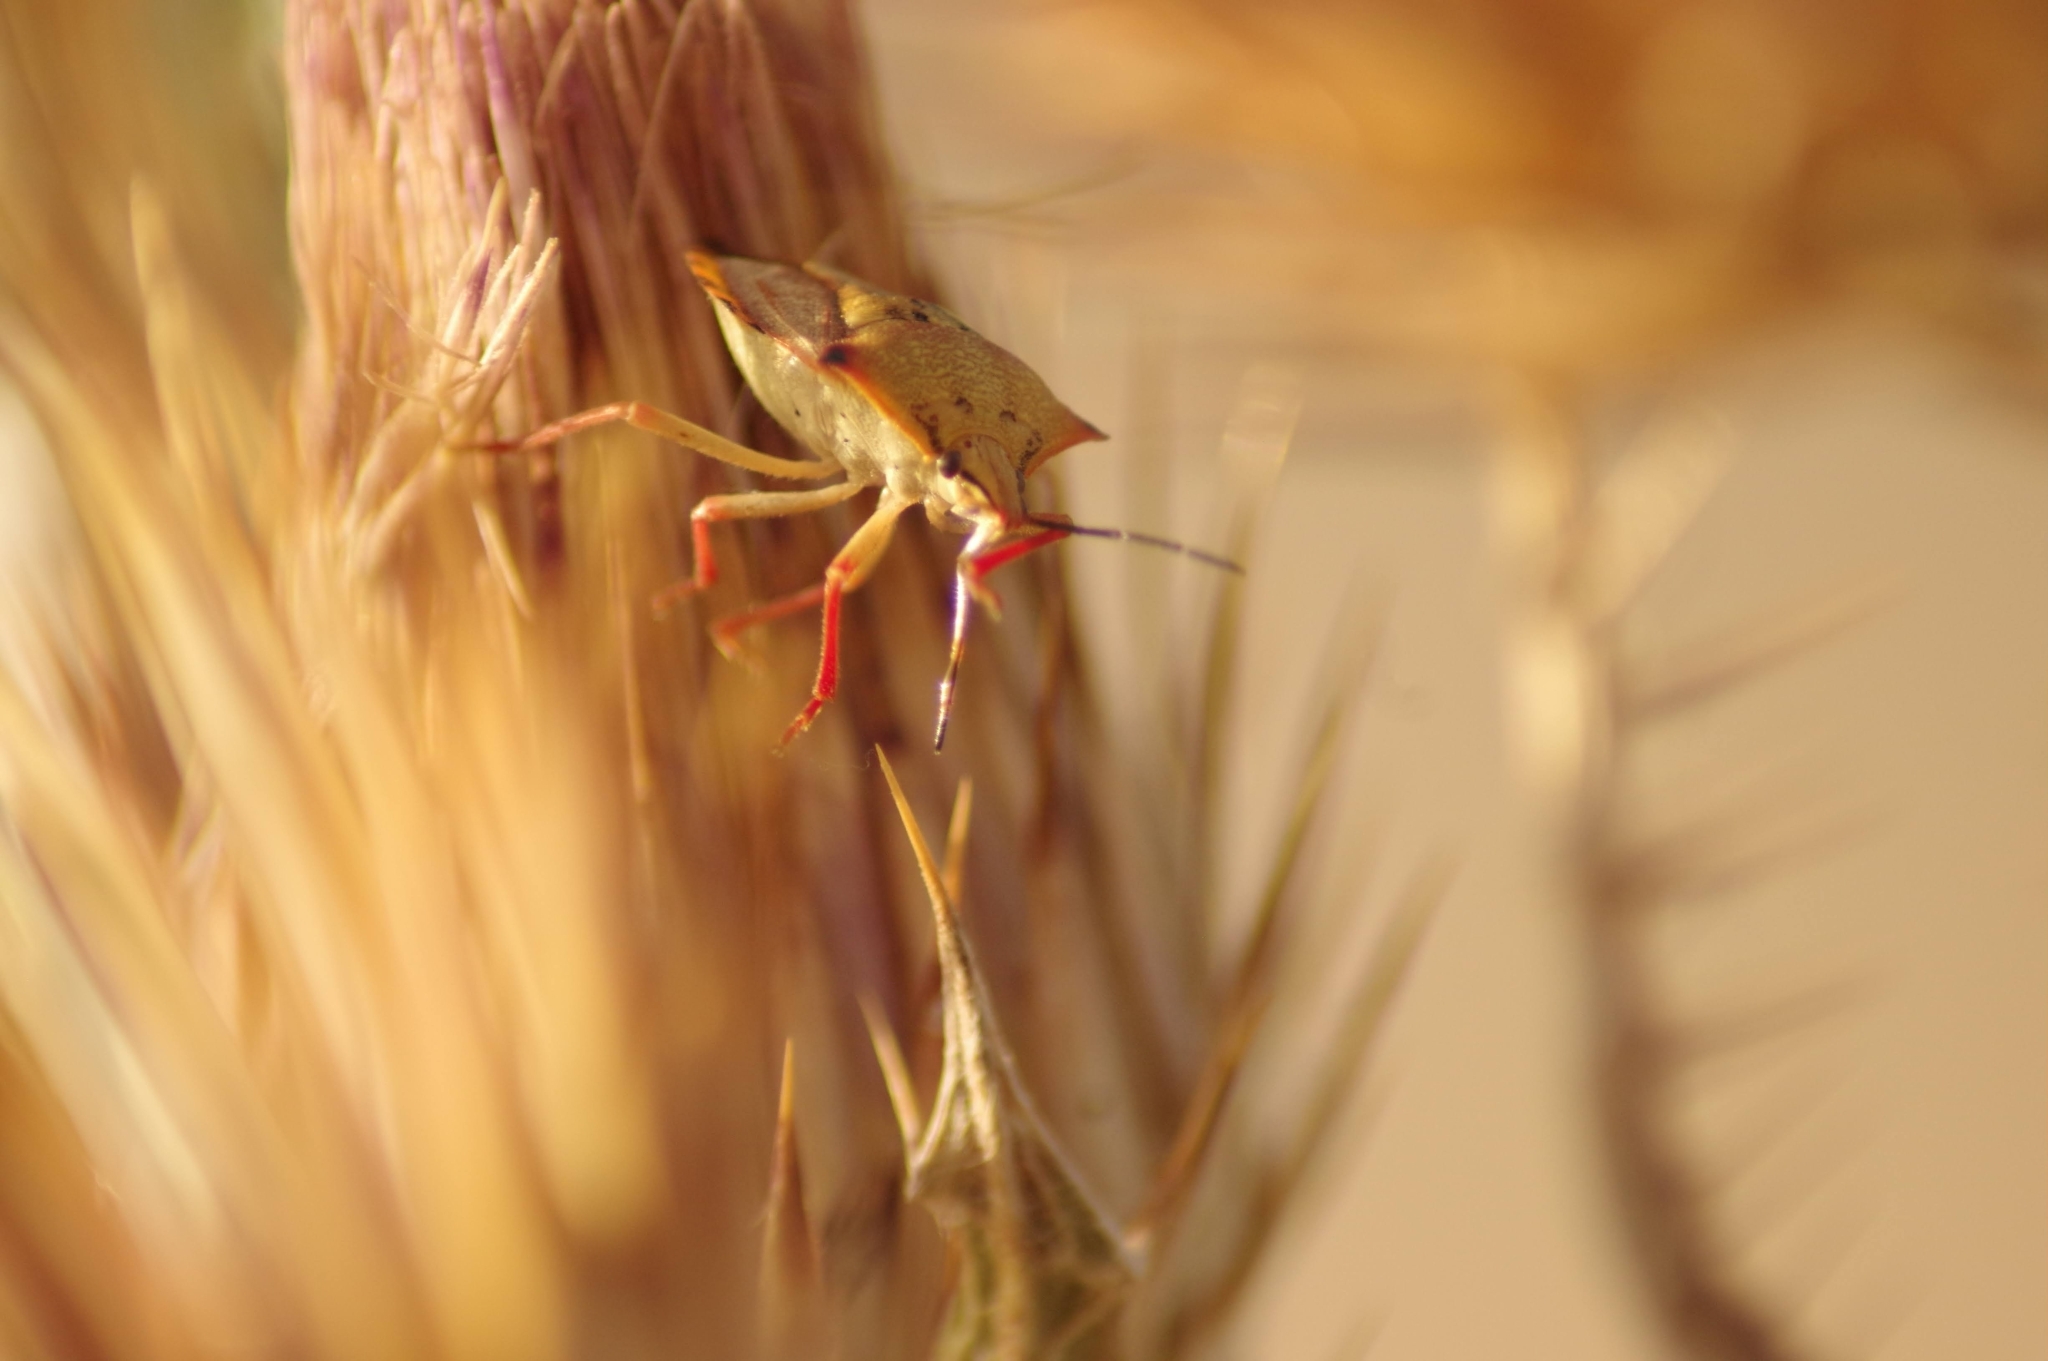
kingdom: Animalia
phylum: Arthropoda
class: Insecta
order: Hemiptera
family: Pentatomidae
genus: Carpocoris
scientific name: Carpocoris mediterraneus
